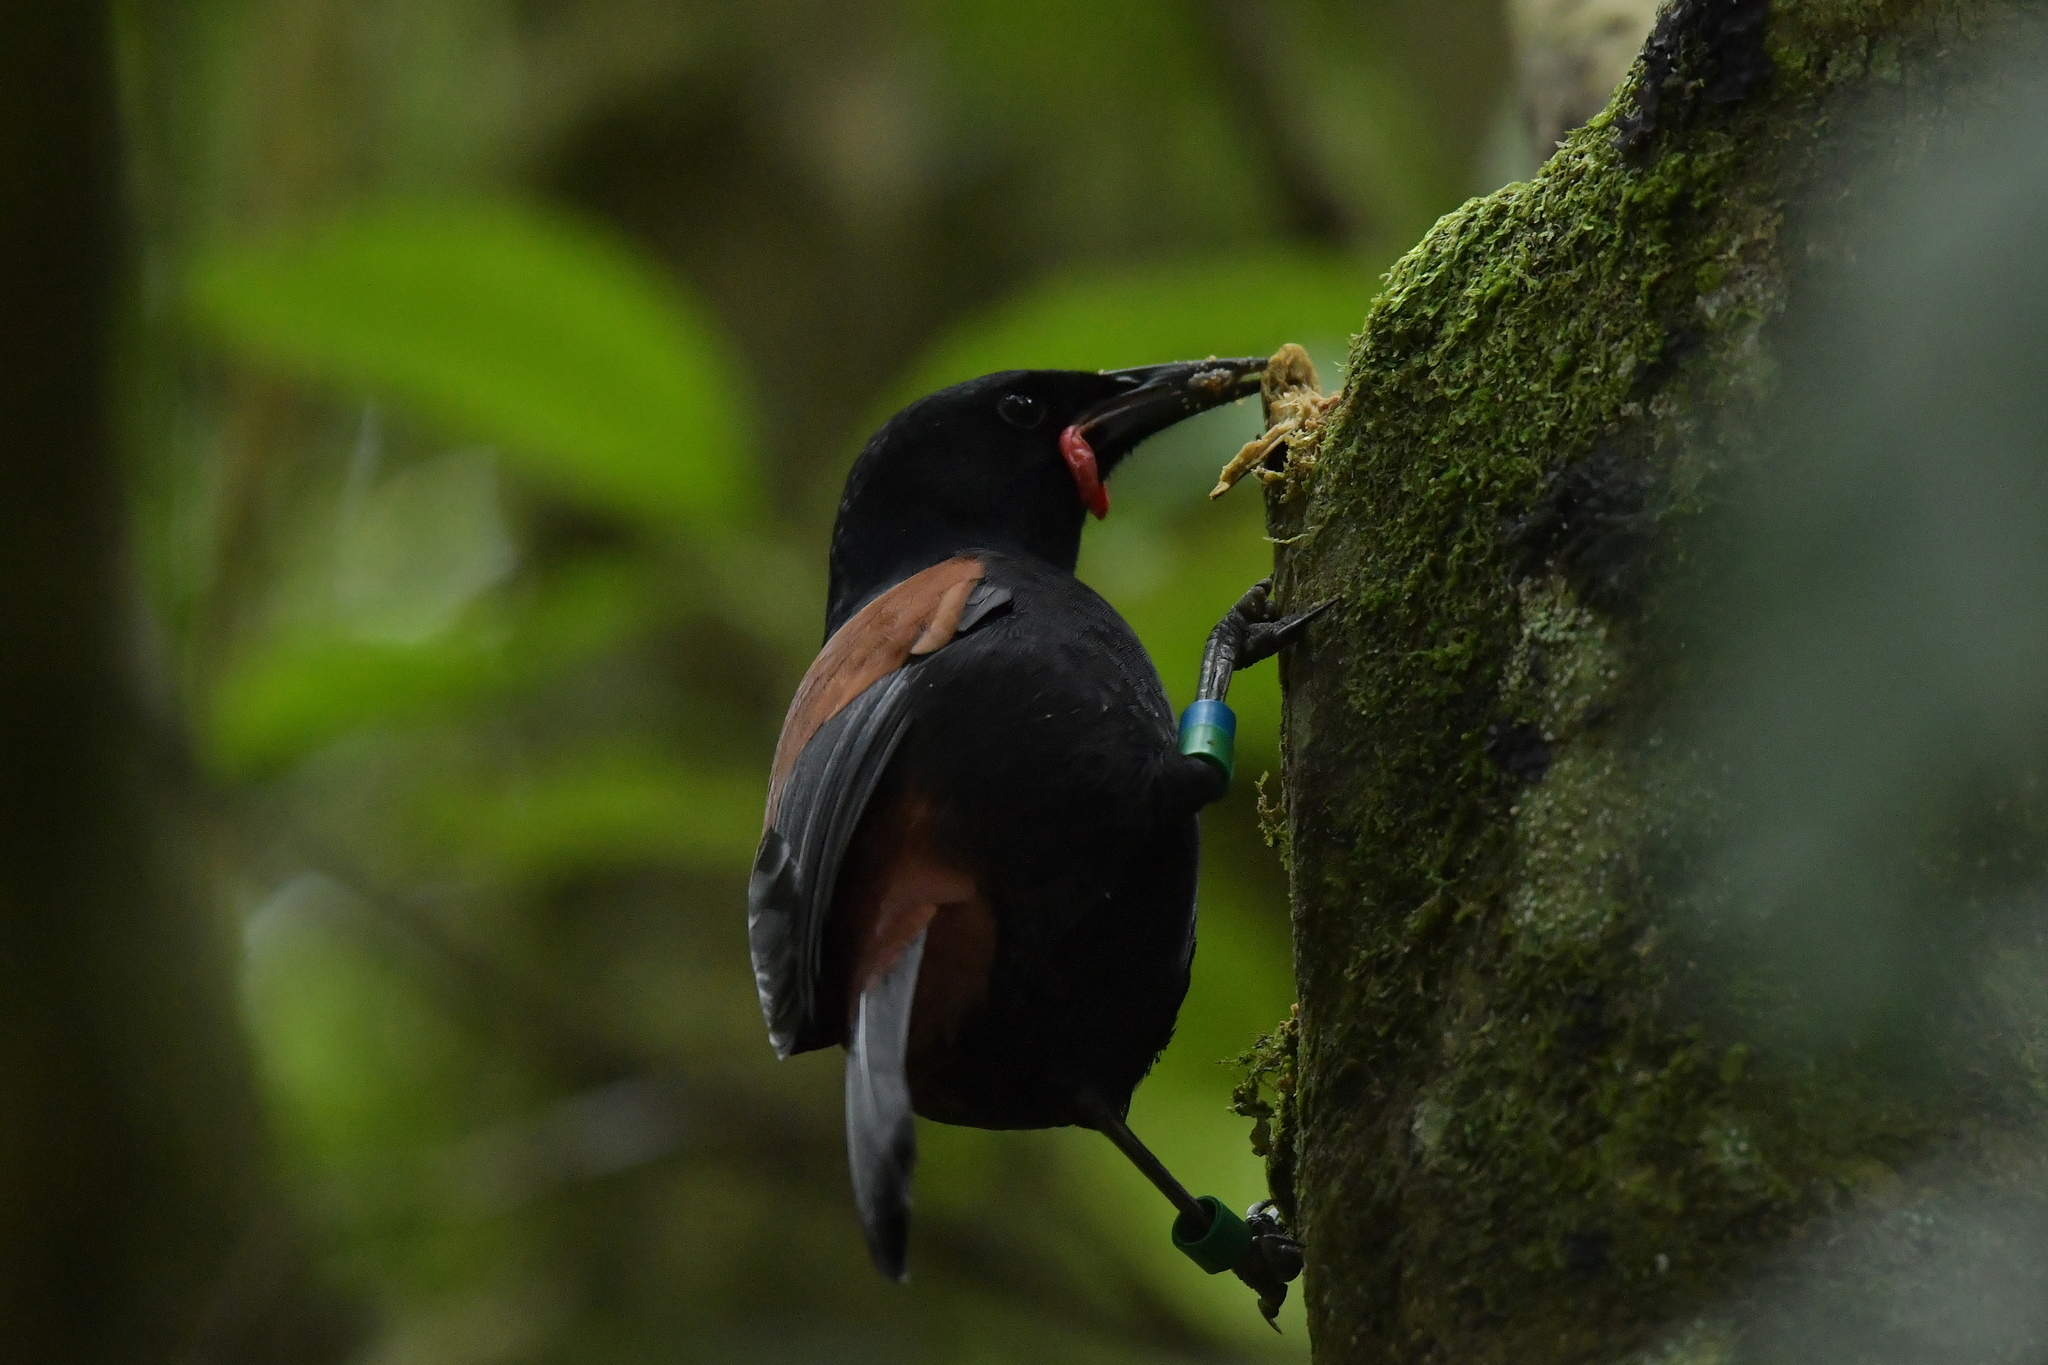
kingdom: Animalia
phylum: Chordata
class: Aves
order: Passeriformes
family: Callaeatidae
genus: Philesturnus
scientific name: Philesturnus carunculatus
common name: South island saddleback
